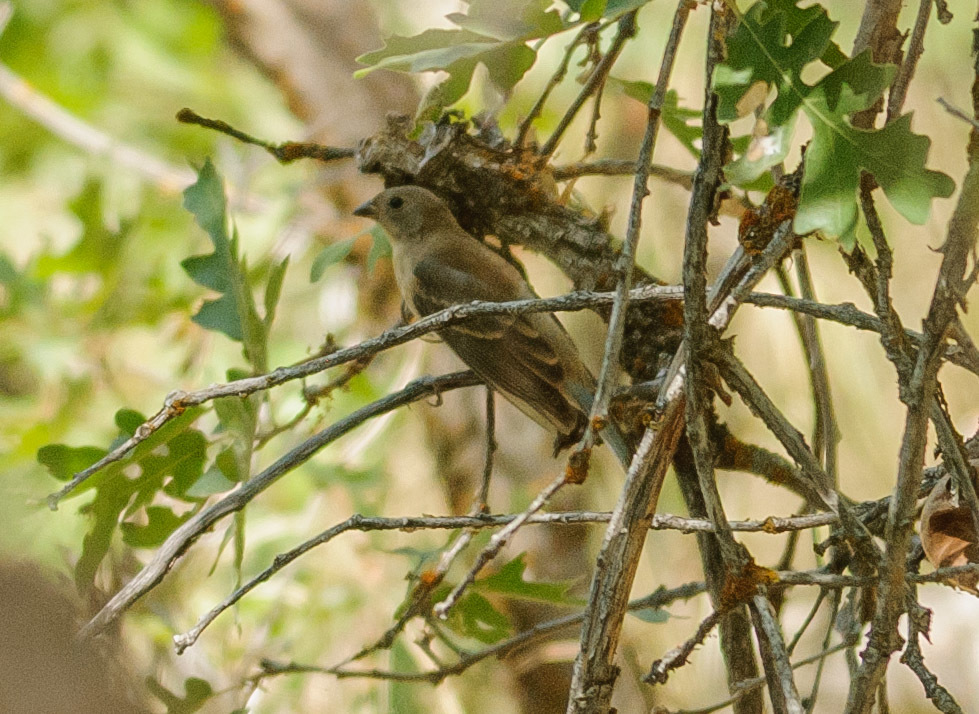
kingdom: Animalia
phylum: Chordata
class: Aves
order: Passeriformes
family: Cardinalidae
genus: Passerina
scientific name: Passerina amoena
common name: Lazuli bunting
